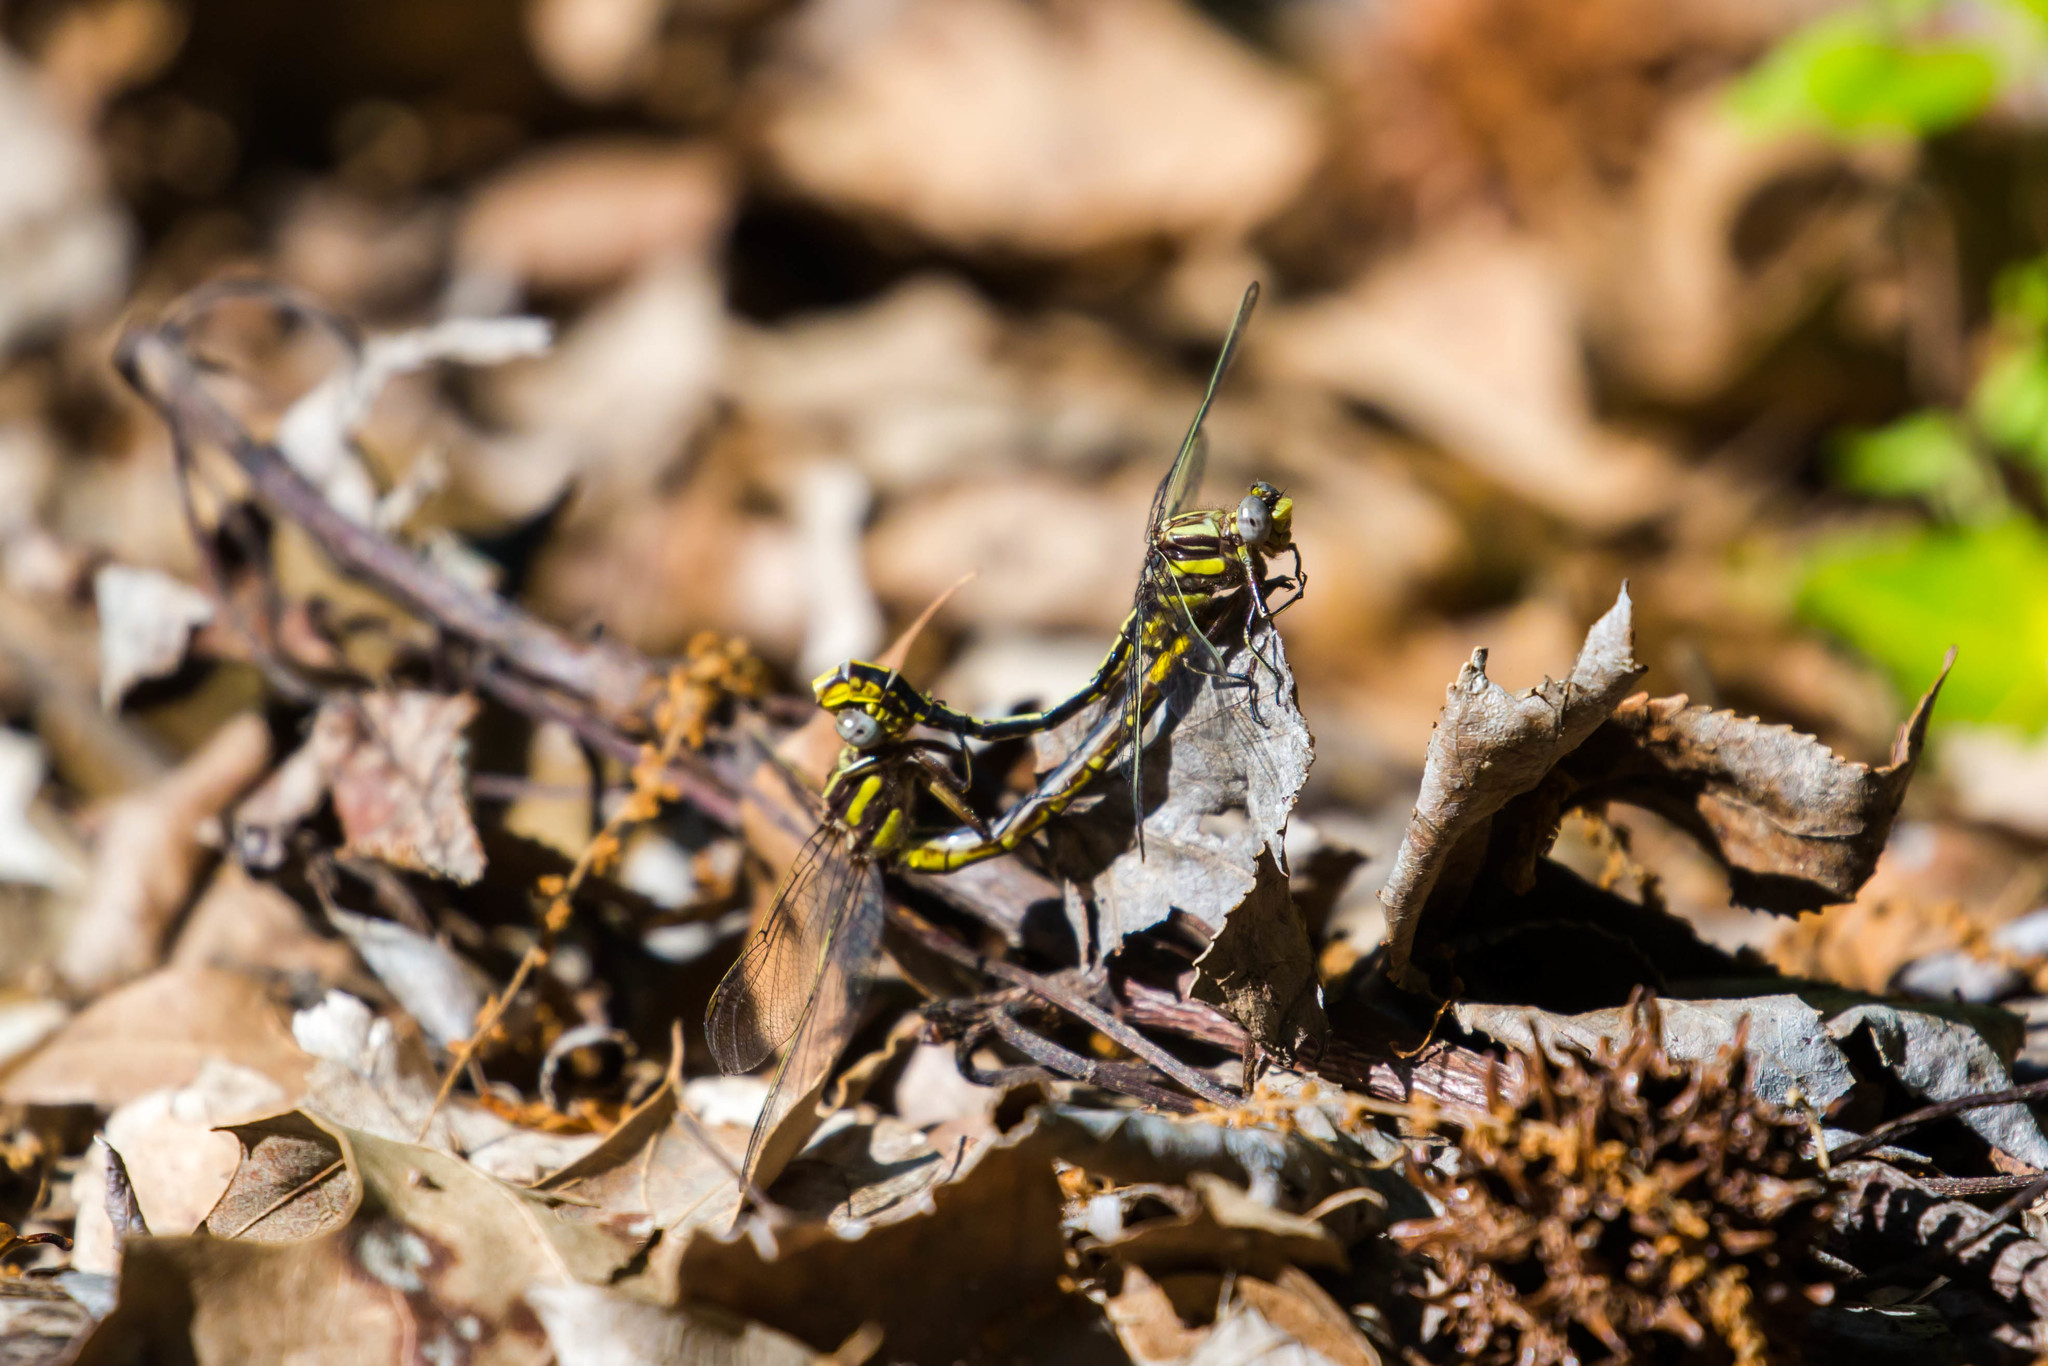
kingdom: Animalia
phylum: Arthropoda
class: Insecta
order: Odonata
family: Gomphidae
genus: Phanogomphus
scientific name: Phanogomphus exilis
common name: Lancet clubtail
